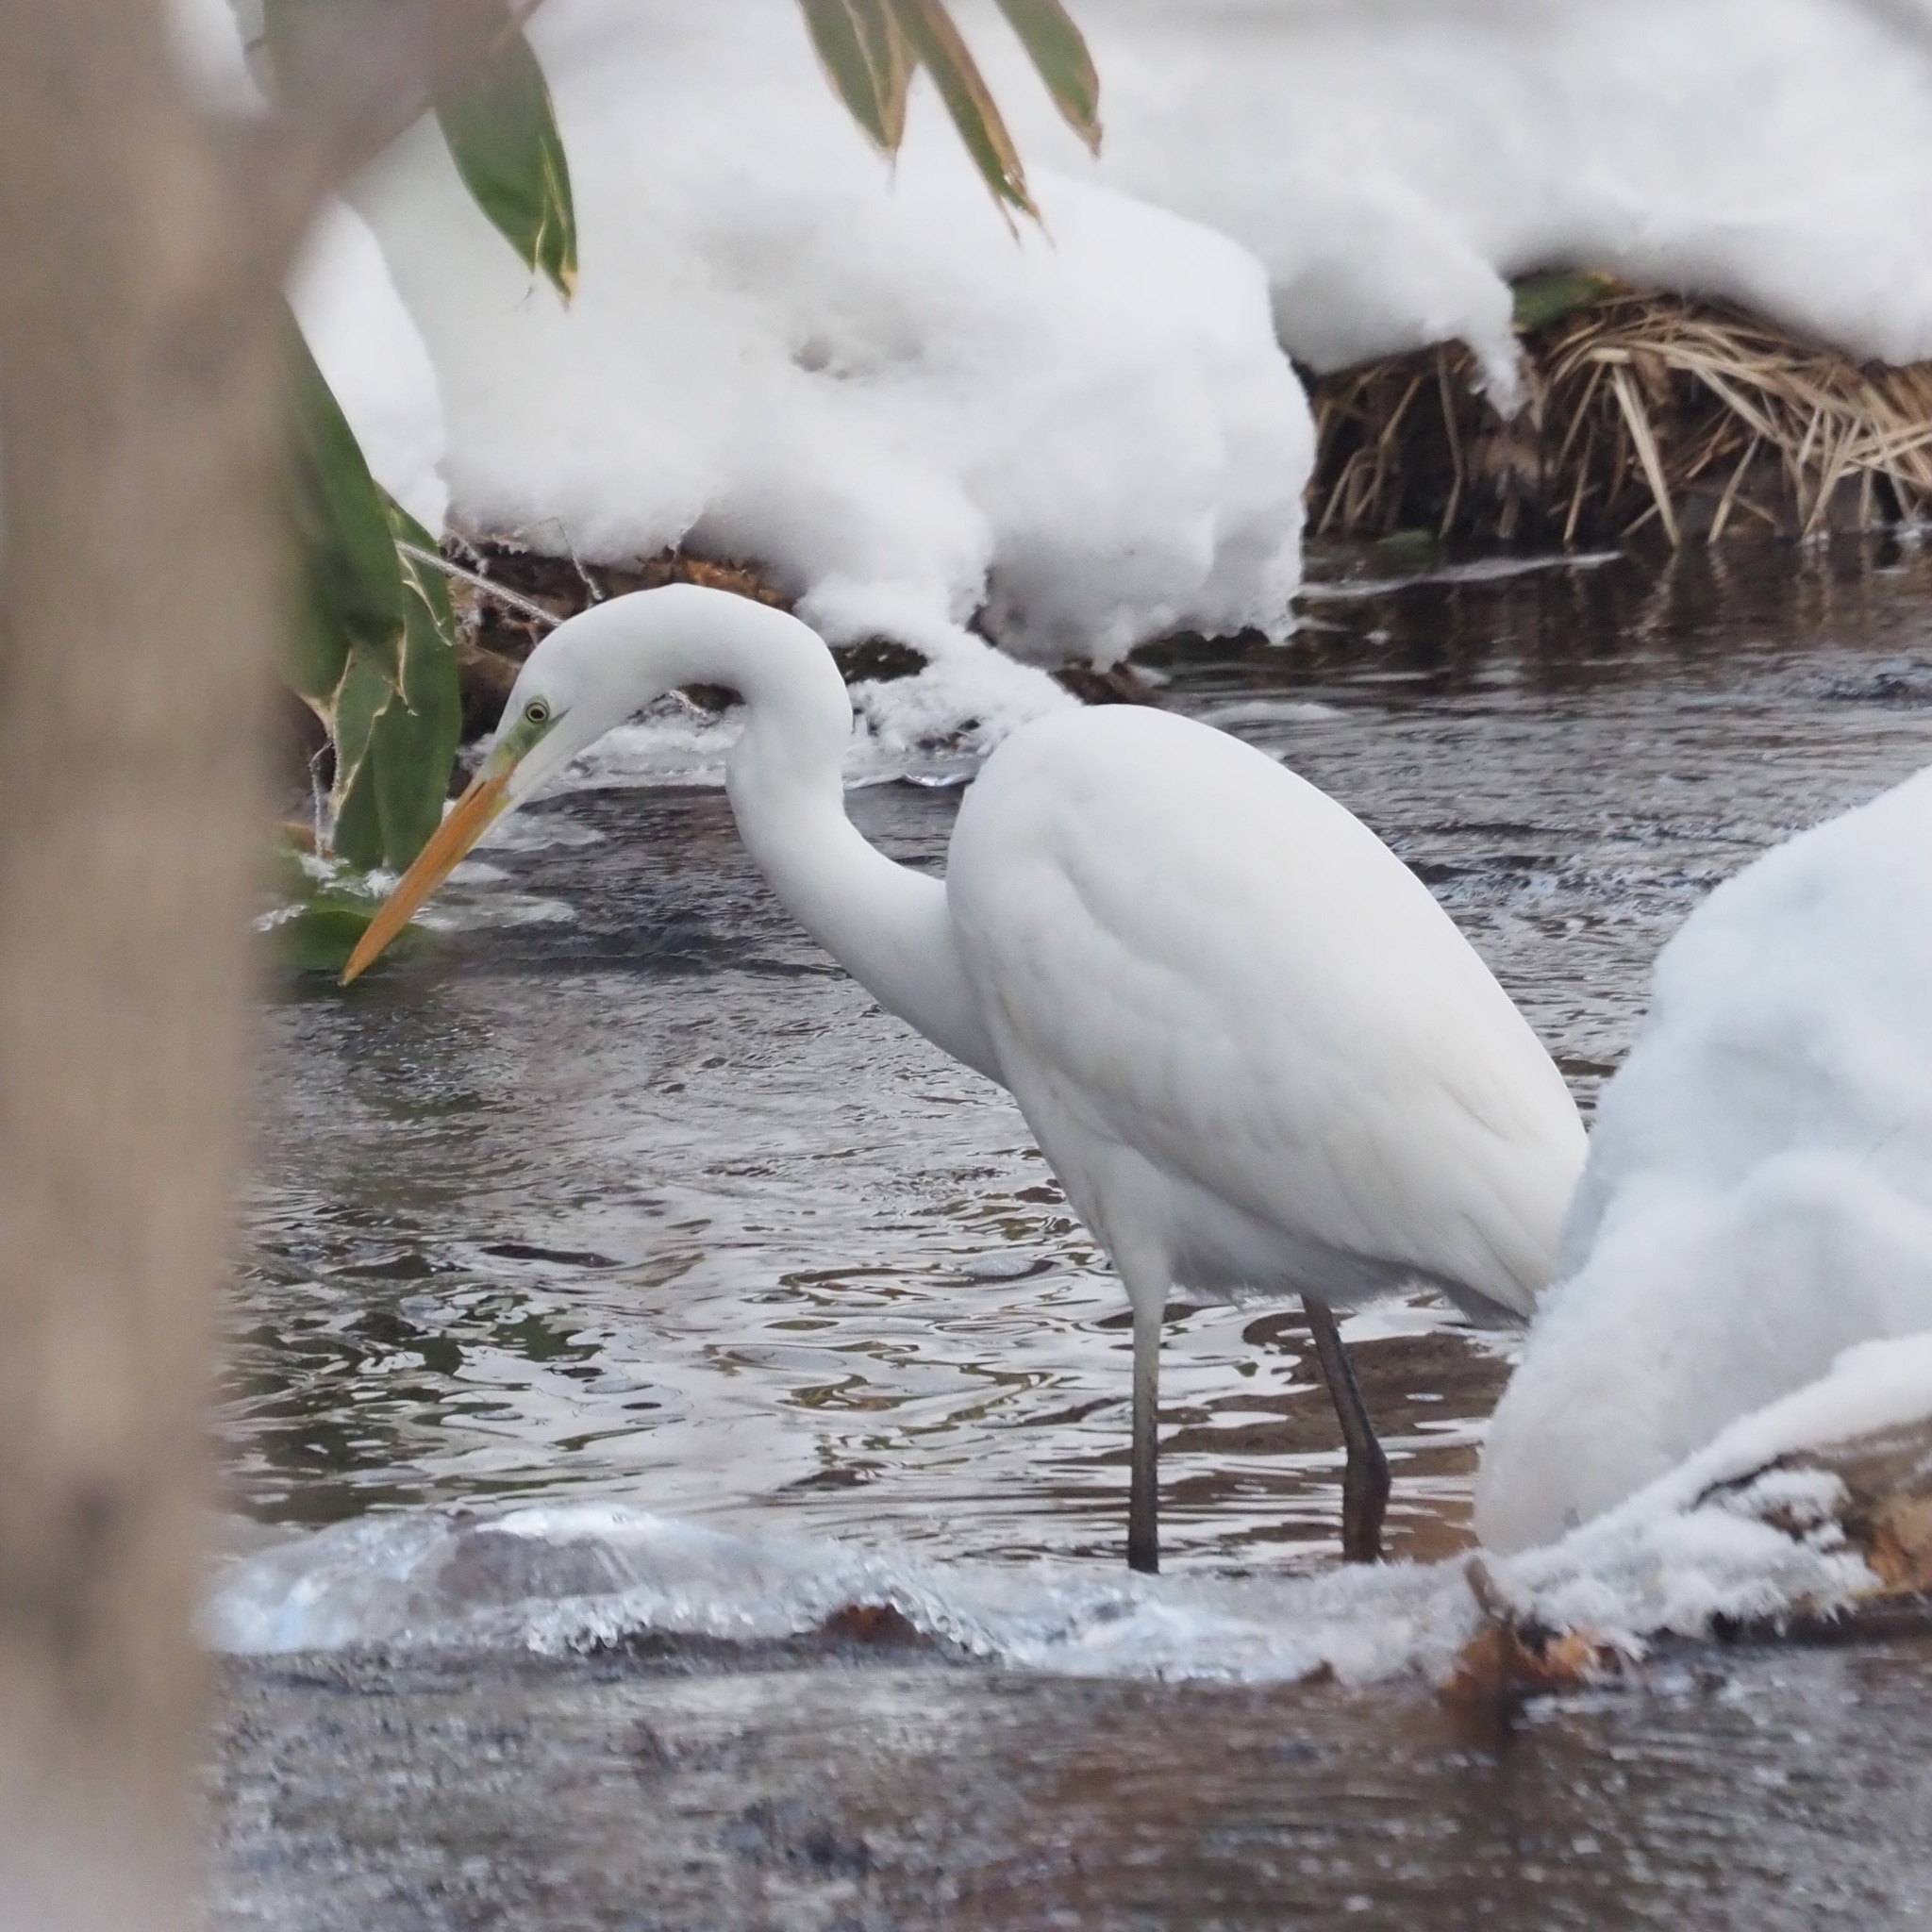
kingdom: Animalia
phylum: Chordata
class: Aves
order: Pelecaniformes
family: Ardeidae
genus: Ardea
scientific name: Ardea alba
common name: Great egret
